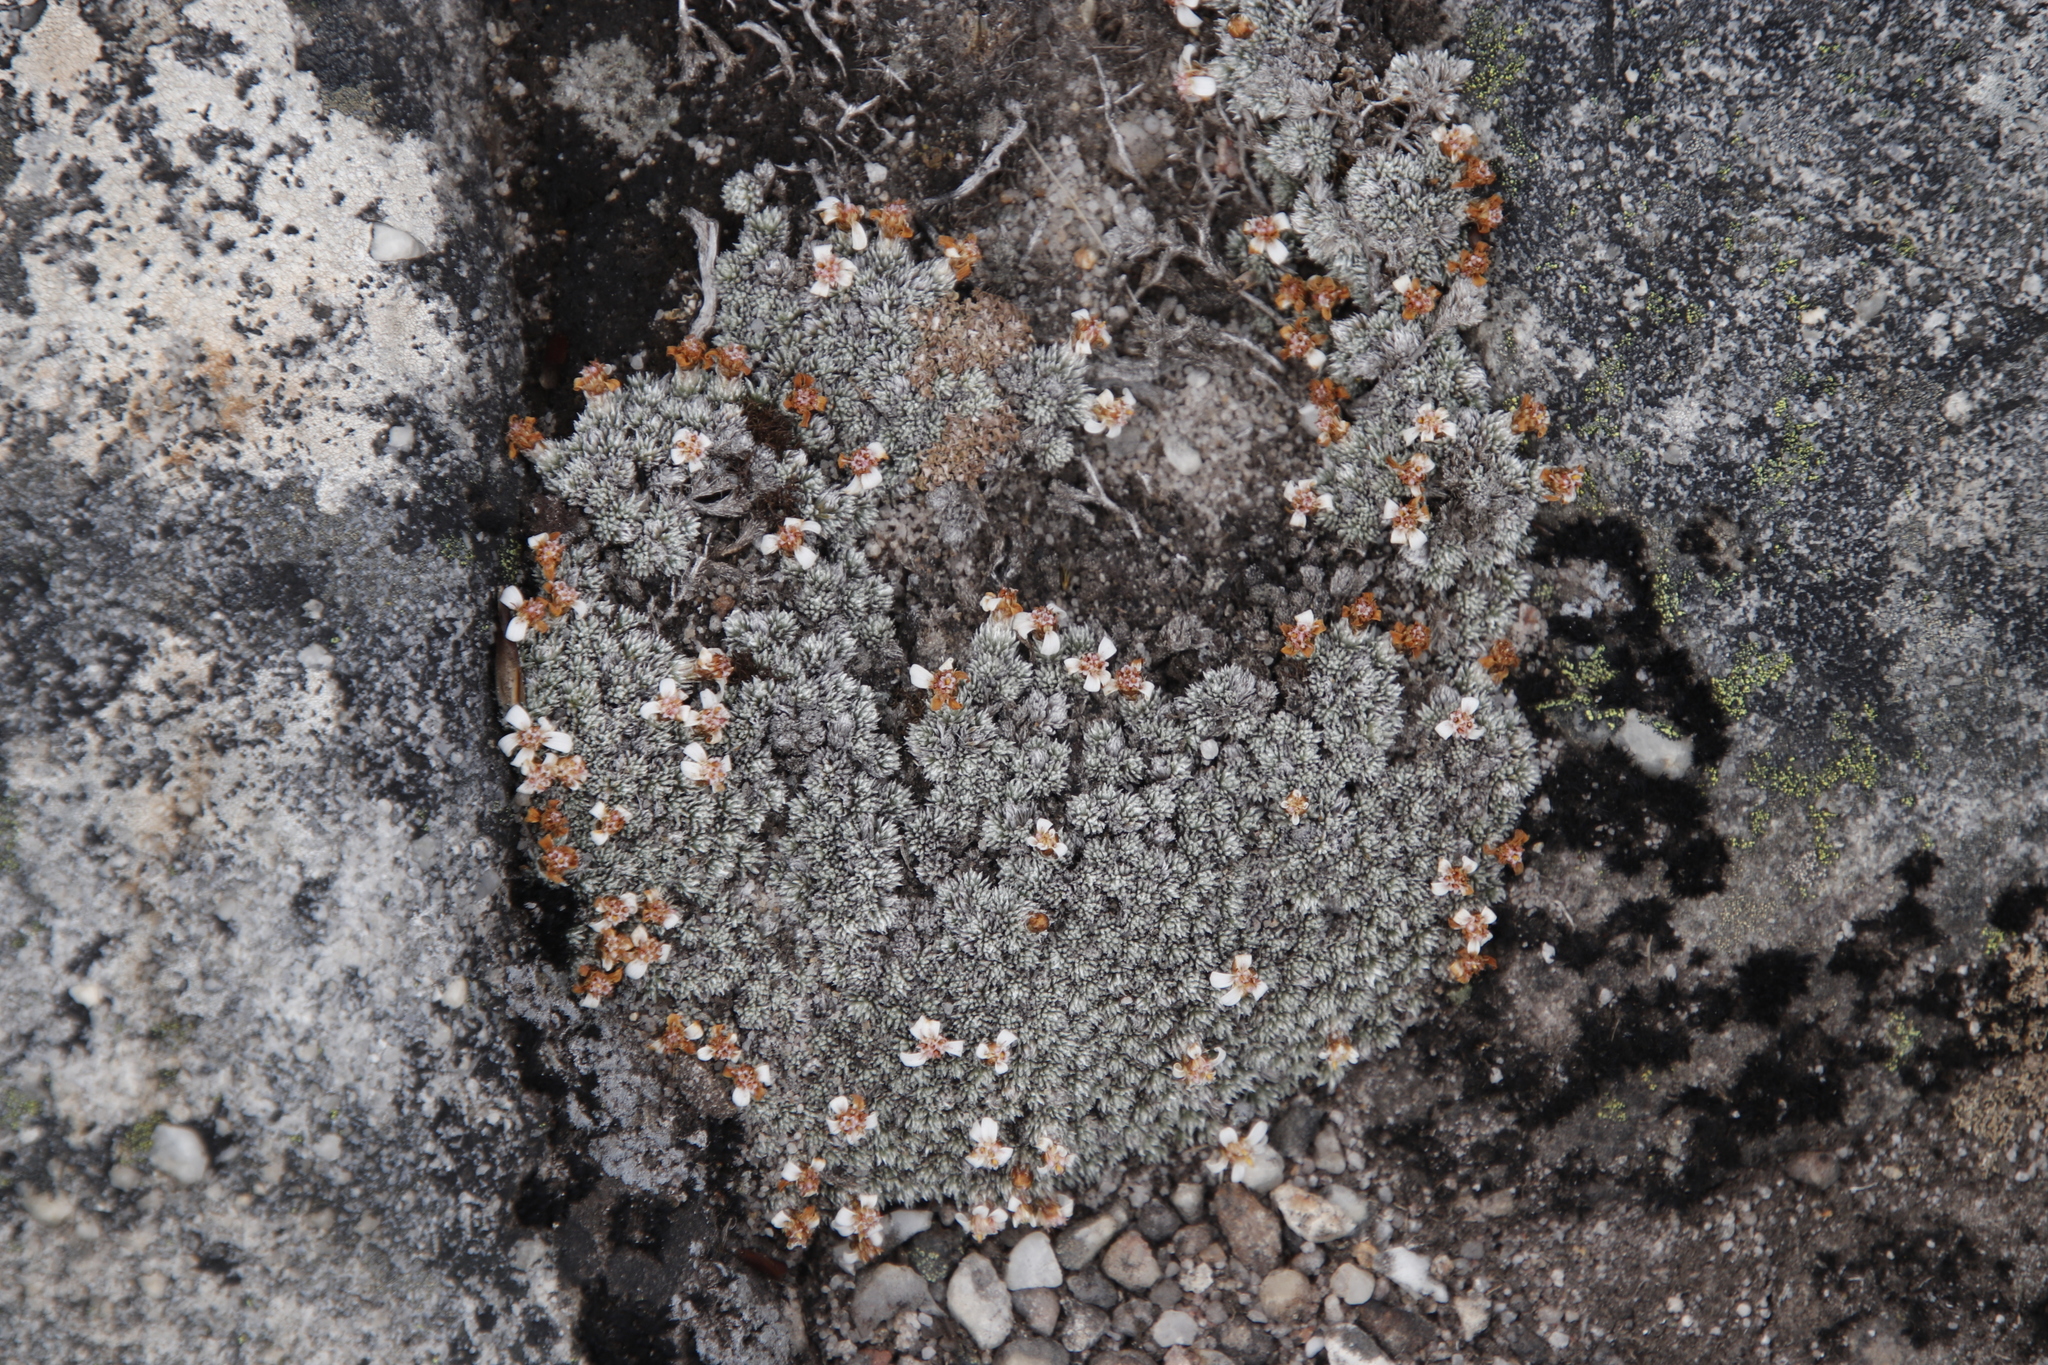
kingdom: Plantae
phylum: Tracheophyta
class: Magnoliopsida
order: Asterales
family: Asteraceae
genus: Muscosomorphe
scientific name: Muscosomorphe aretioides
